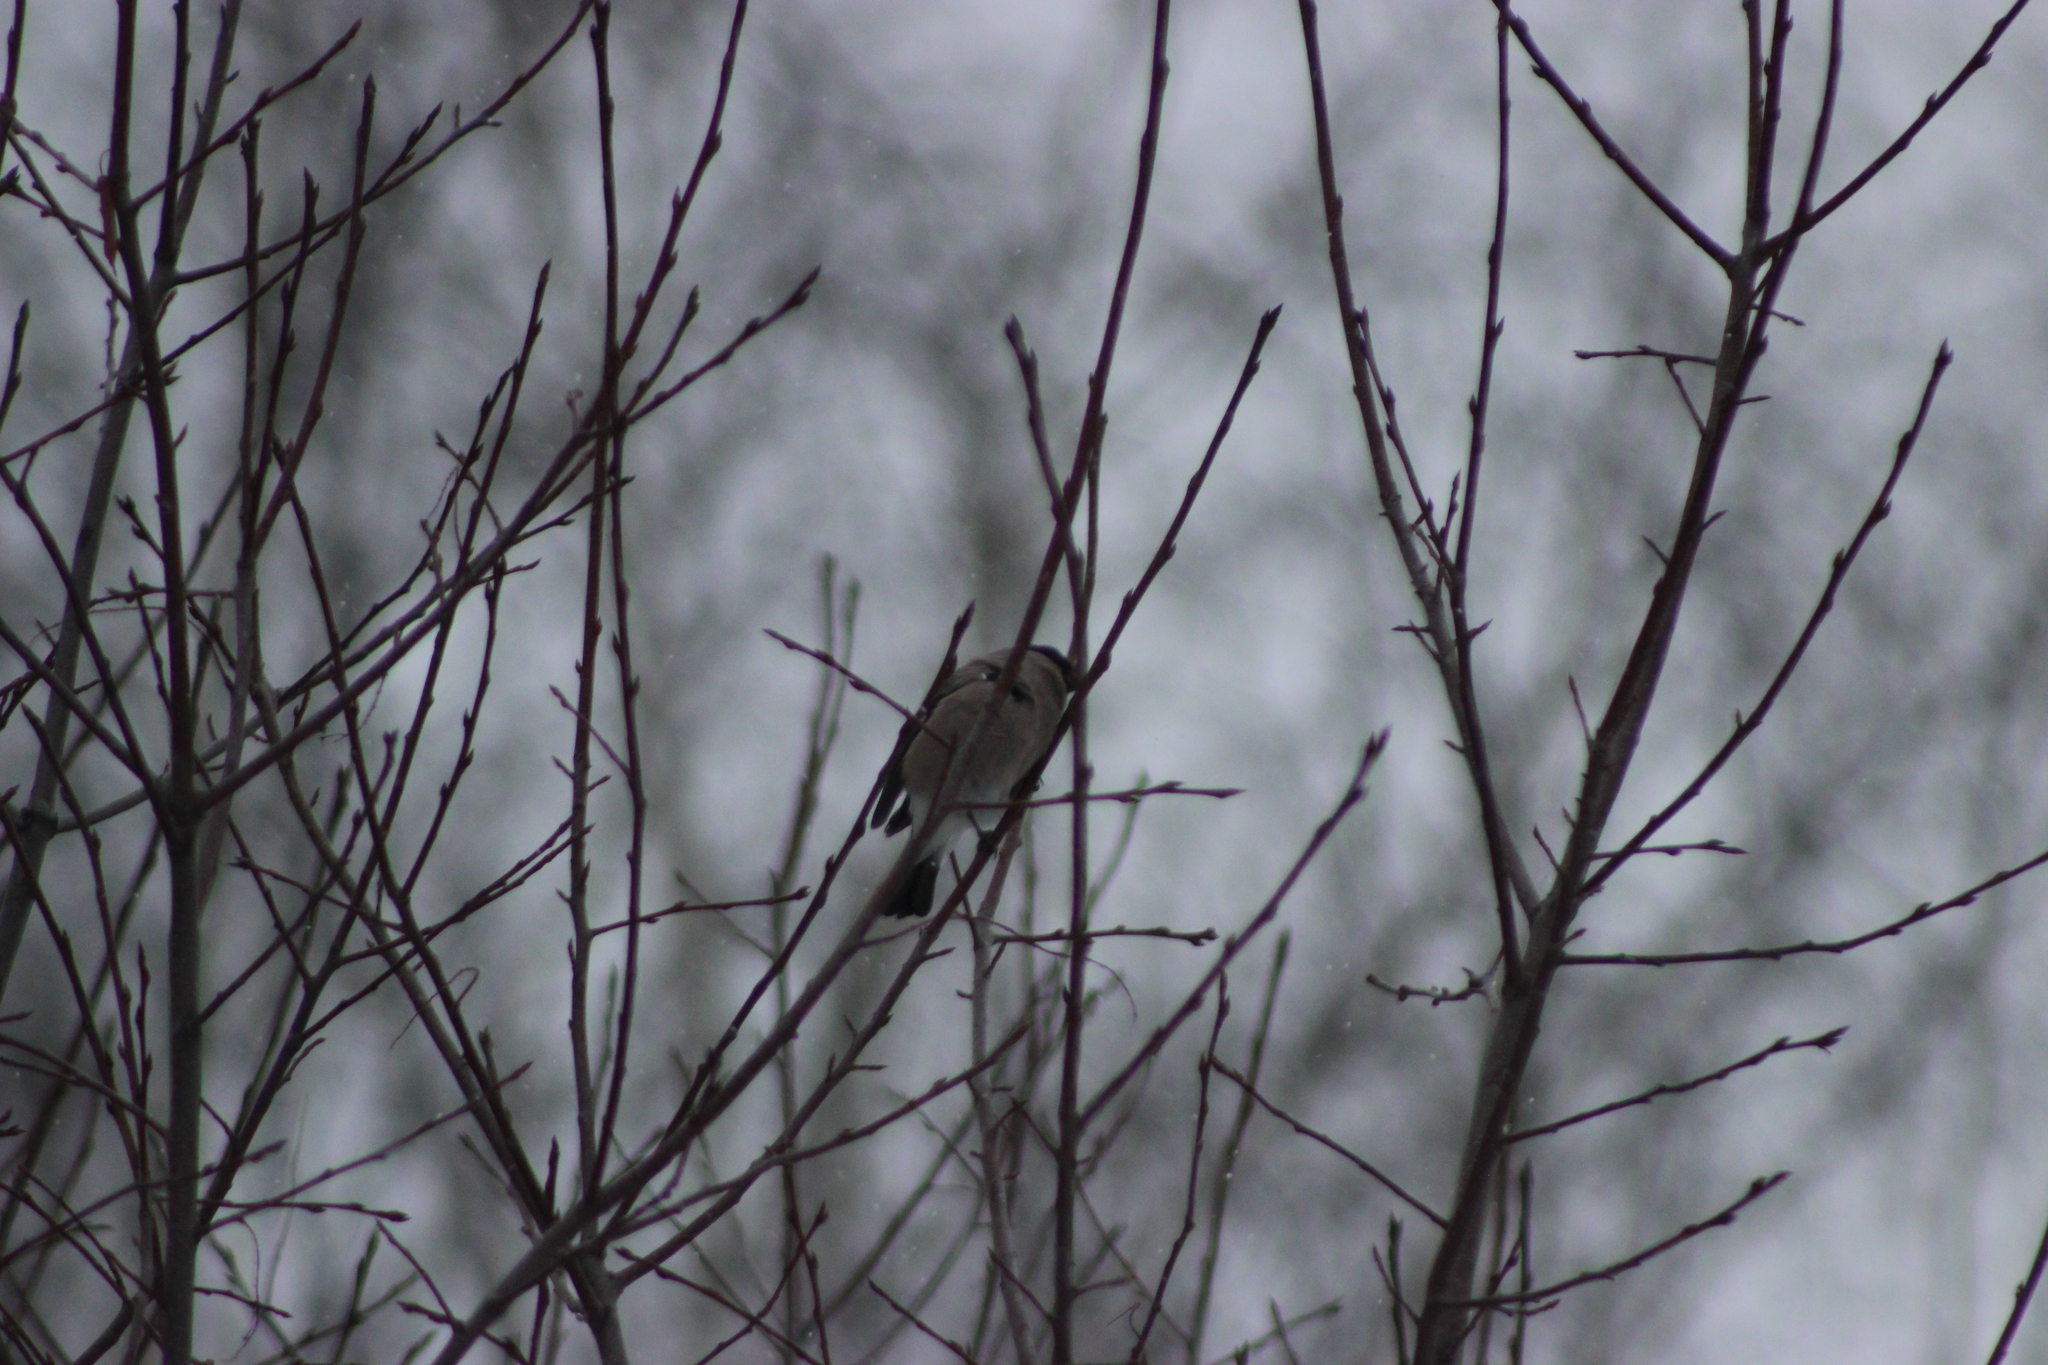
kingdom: Animalia
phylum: Chordata
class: Aves
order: Passeriformes
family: Fringillidae
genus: Pyrrhula
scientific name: Pyrrhula pyrrhula
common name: Eurasian bullfinch
